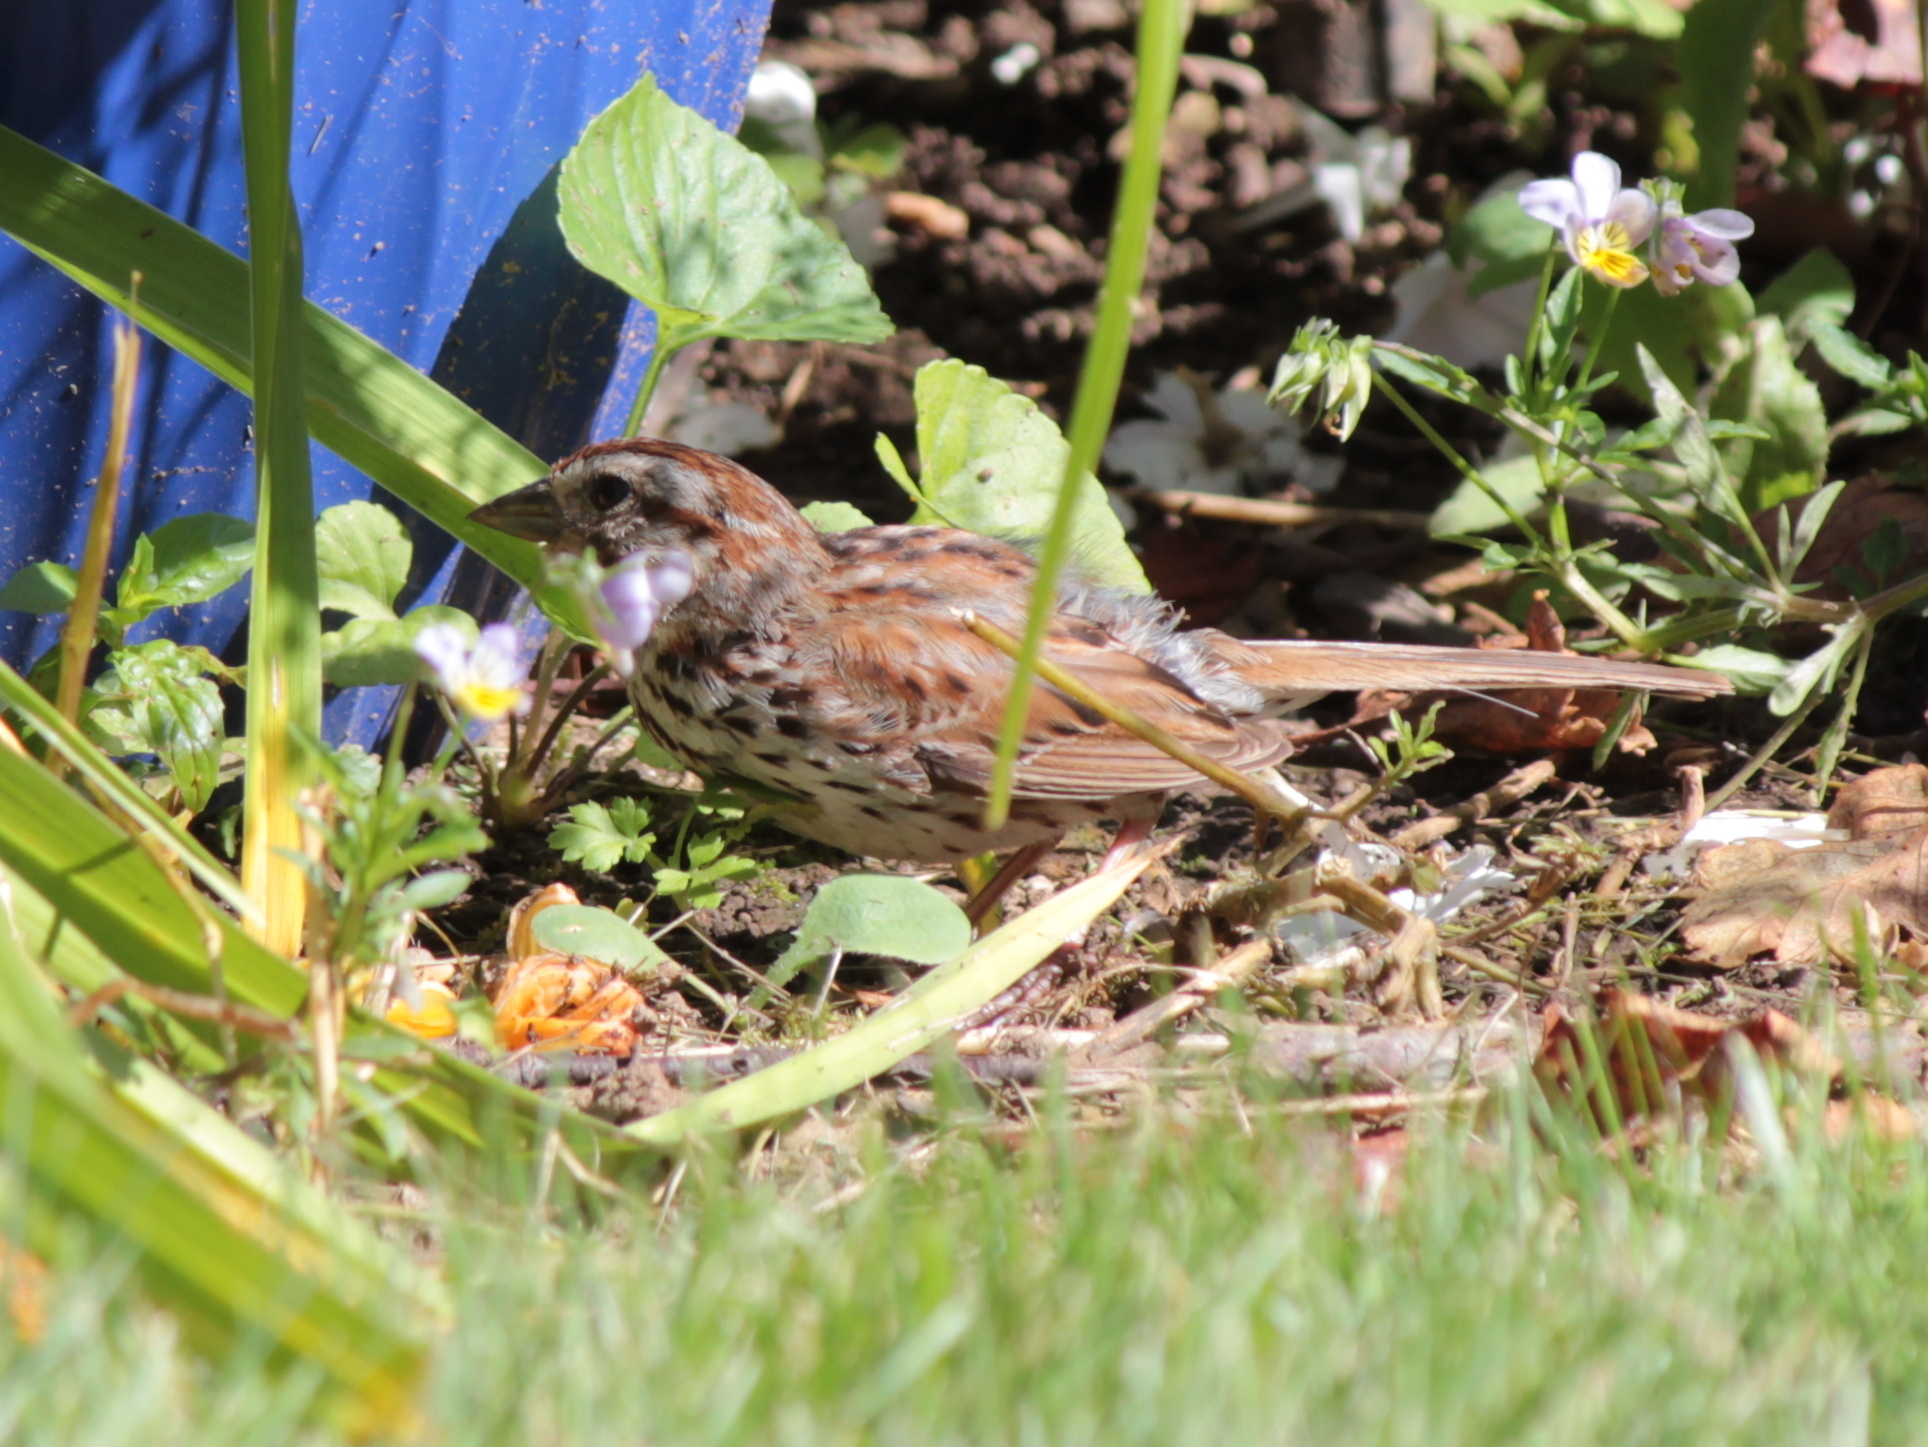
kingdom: Animalia
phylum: Chordata
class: Aves
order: Passeriformes
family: Passerellidae
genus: Melospiza
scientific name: Melospiza melodia
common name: Song sparrow
